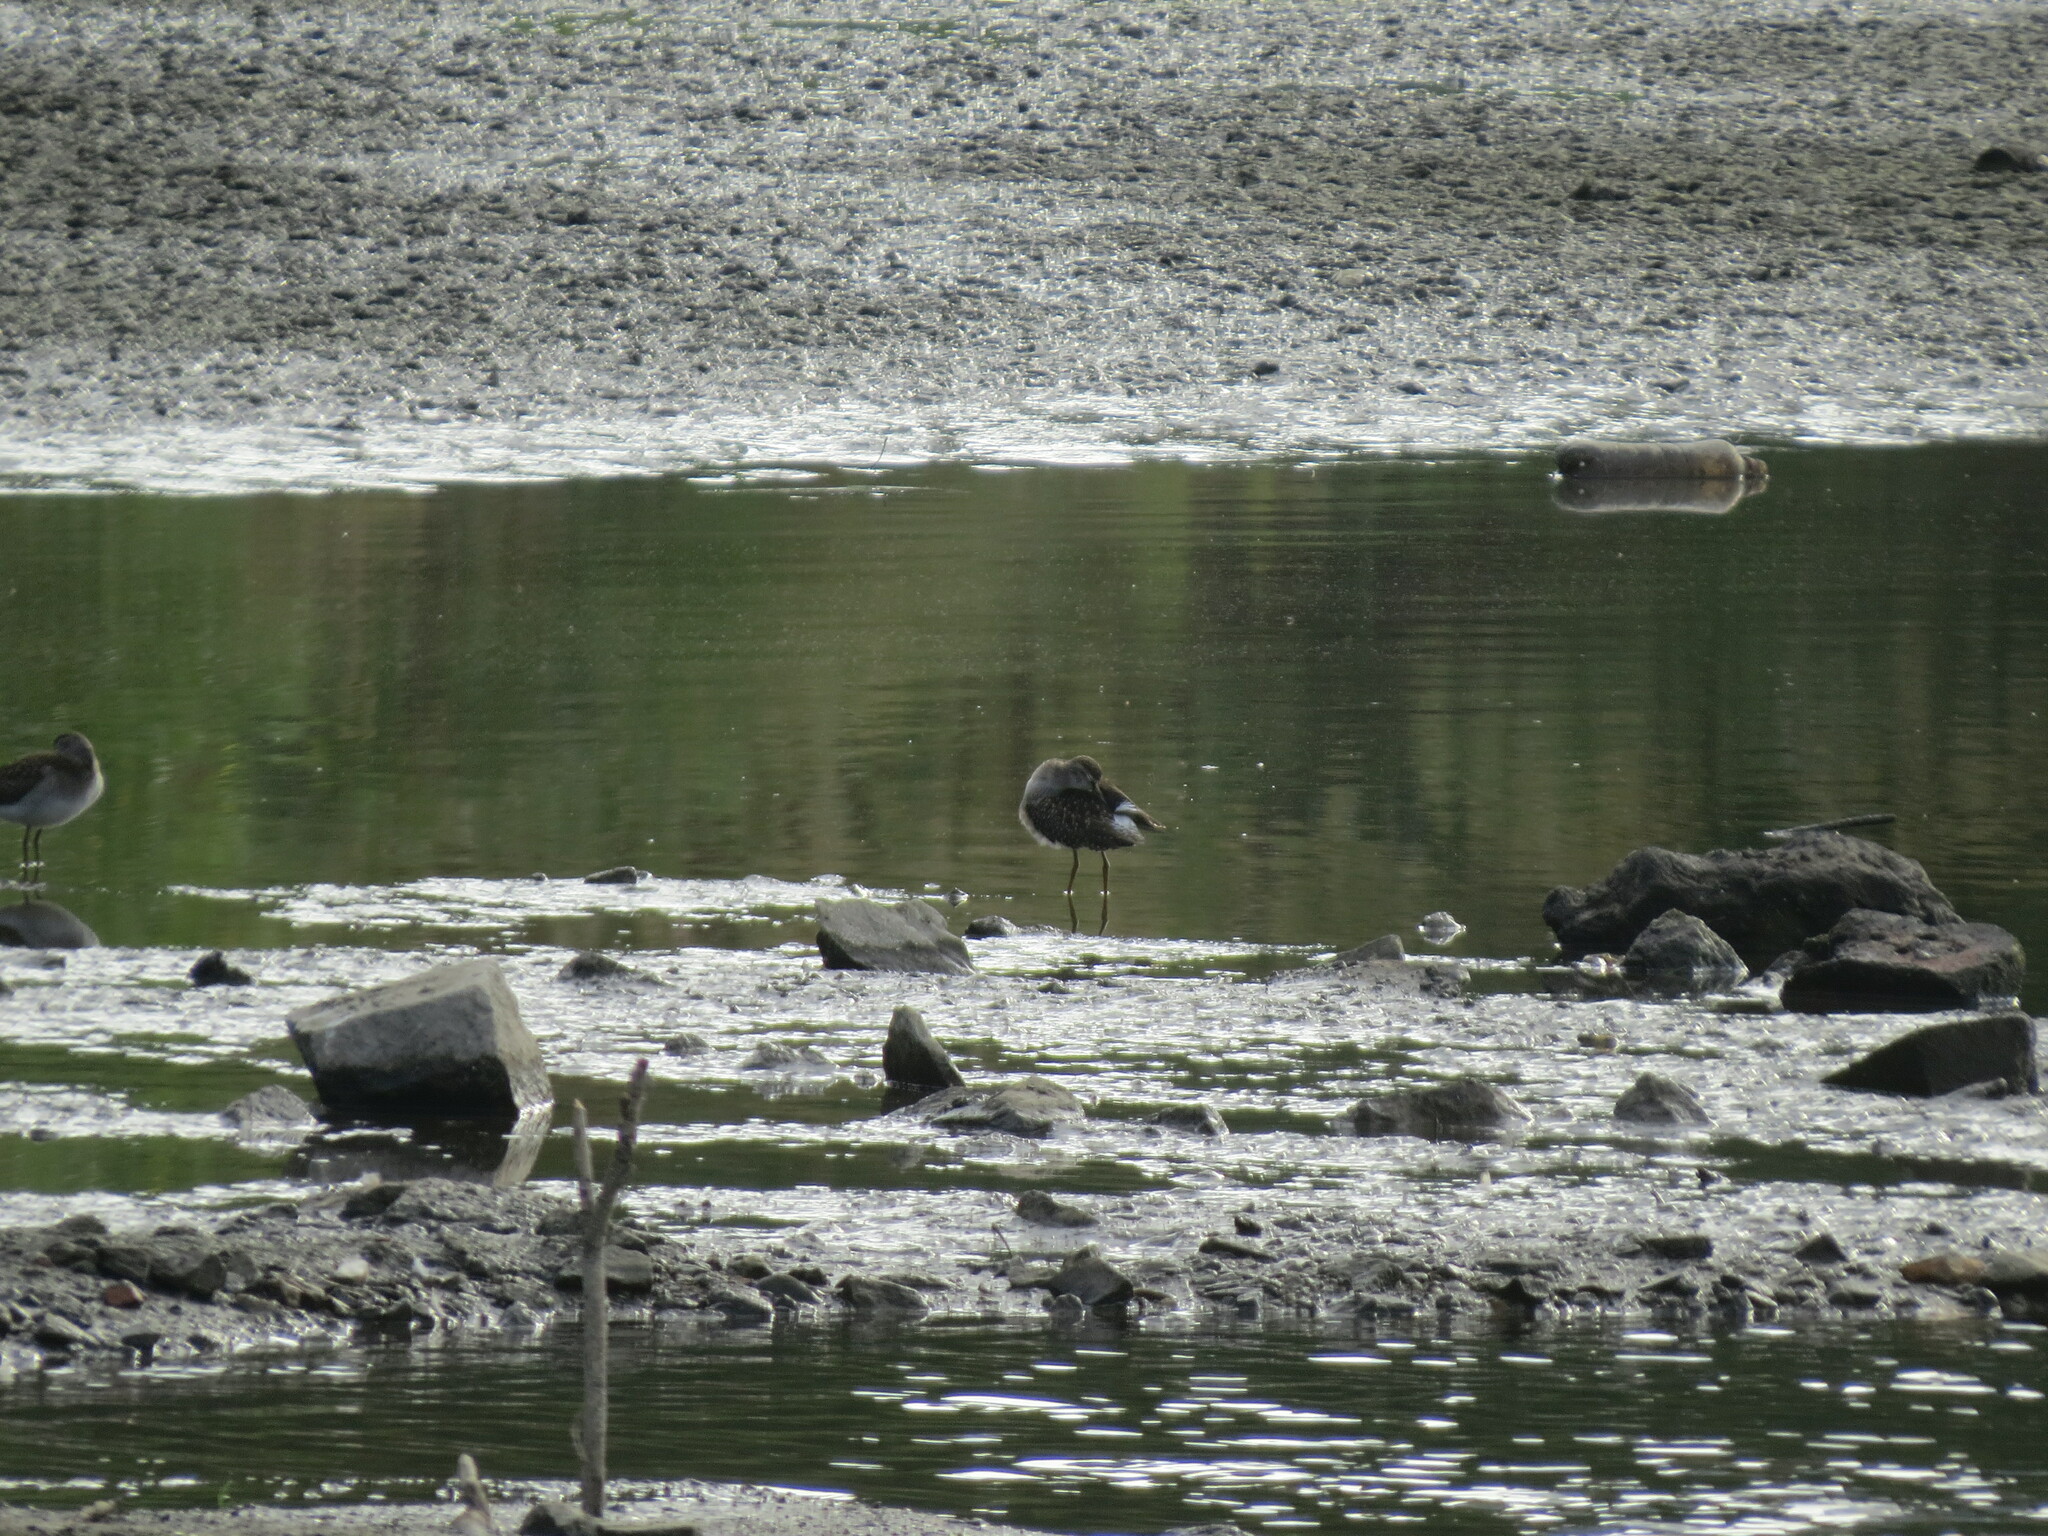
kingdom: Animalia
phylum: Chordata
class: Aves
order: Charadriiformes
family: Scolopacidae
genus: Tringa
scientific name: Tringa glareola
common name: Wood sandpiper
